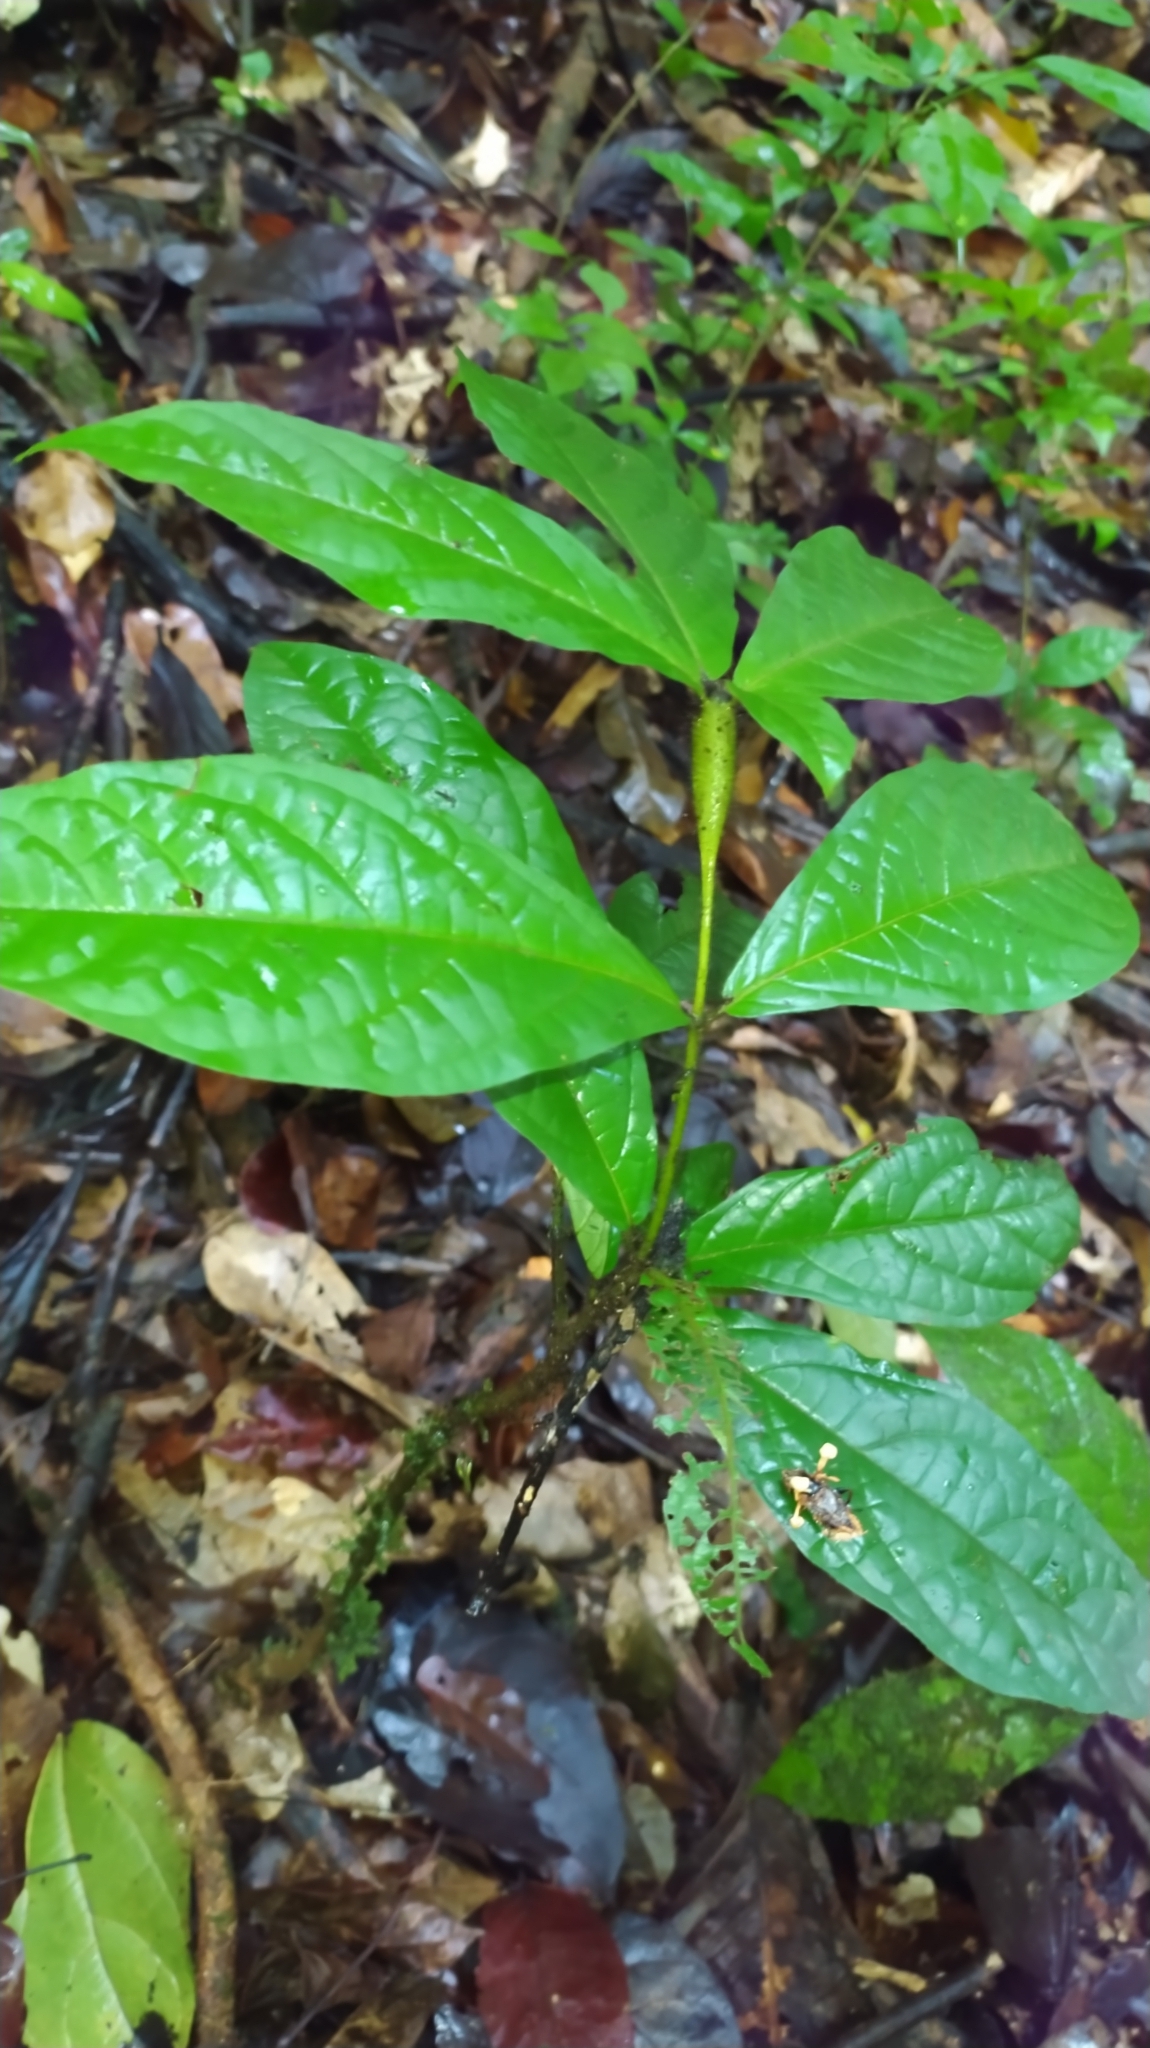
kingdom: Plantae
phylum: Tracheophyta
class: Magnoliopsida
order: Boraginales
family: Cordiaceae
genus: Cordia
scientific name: Cordia nodosa
